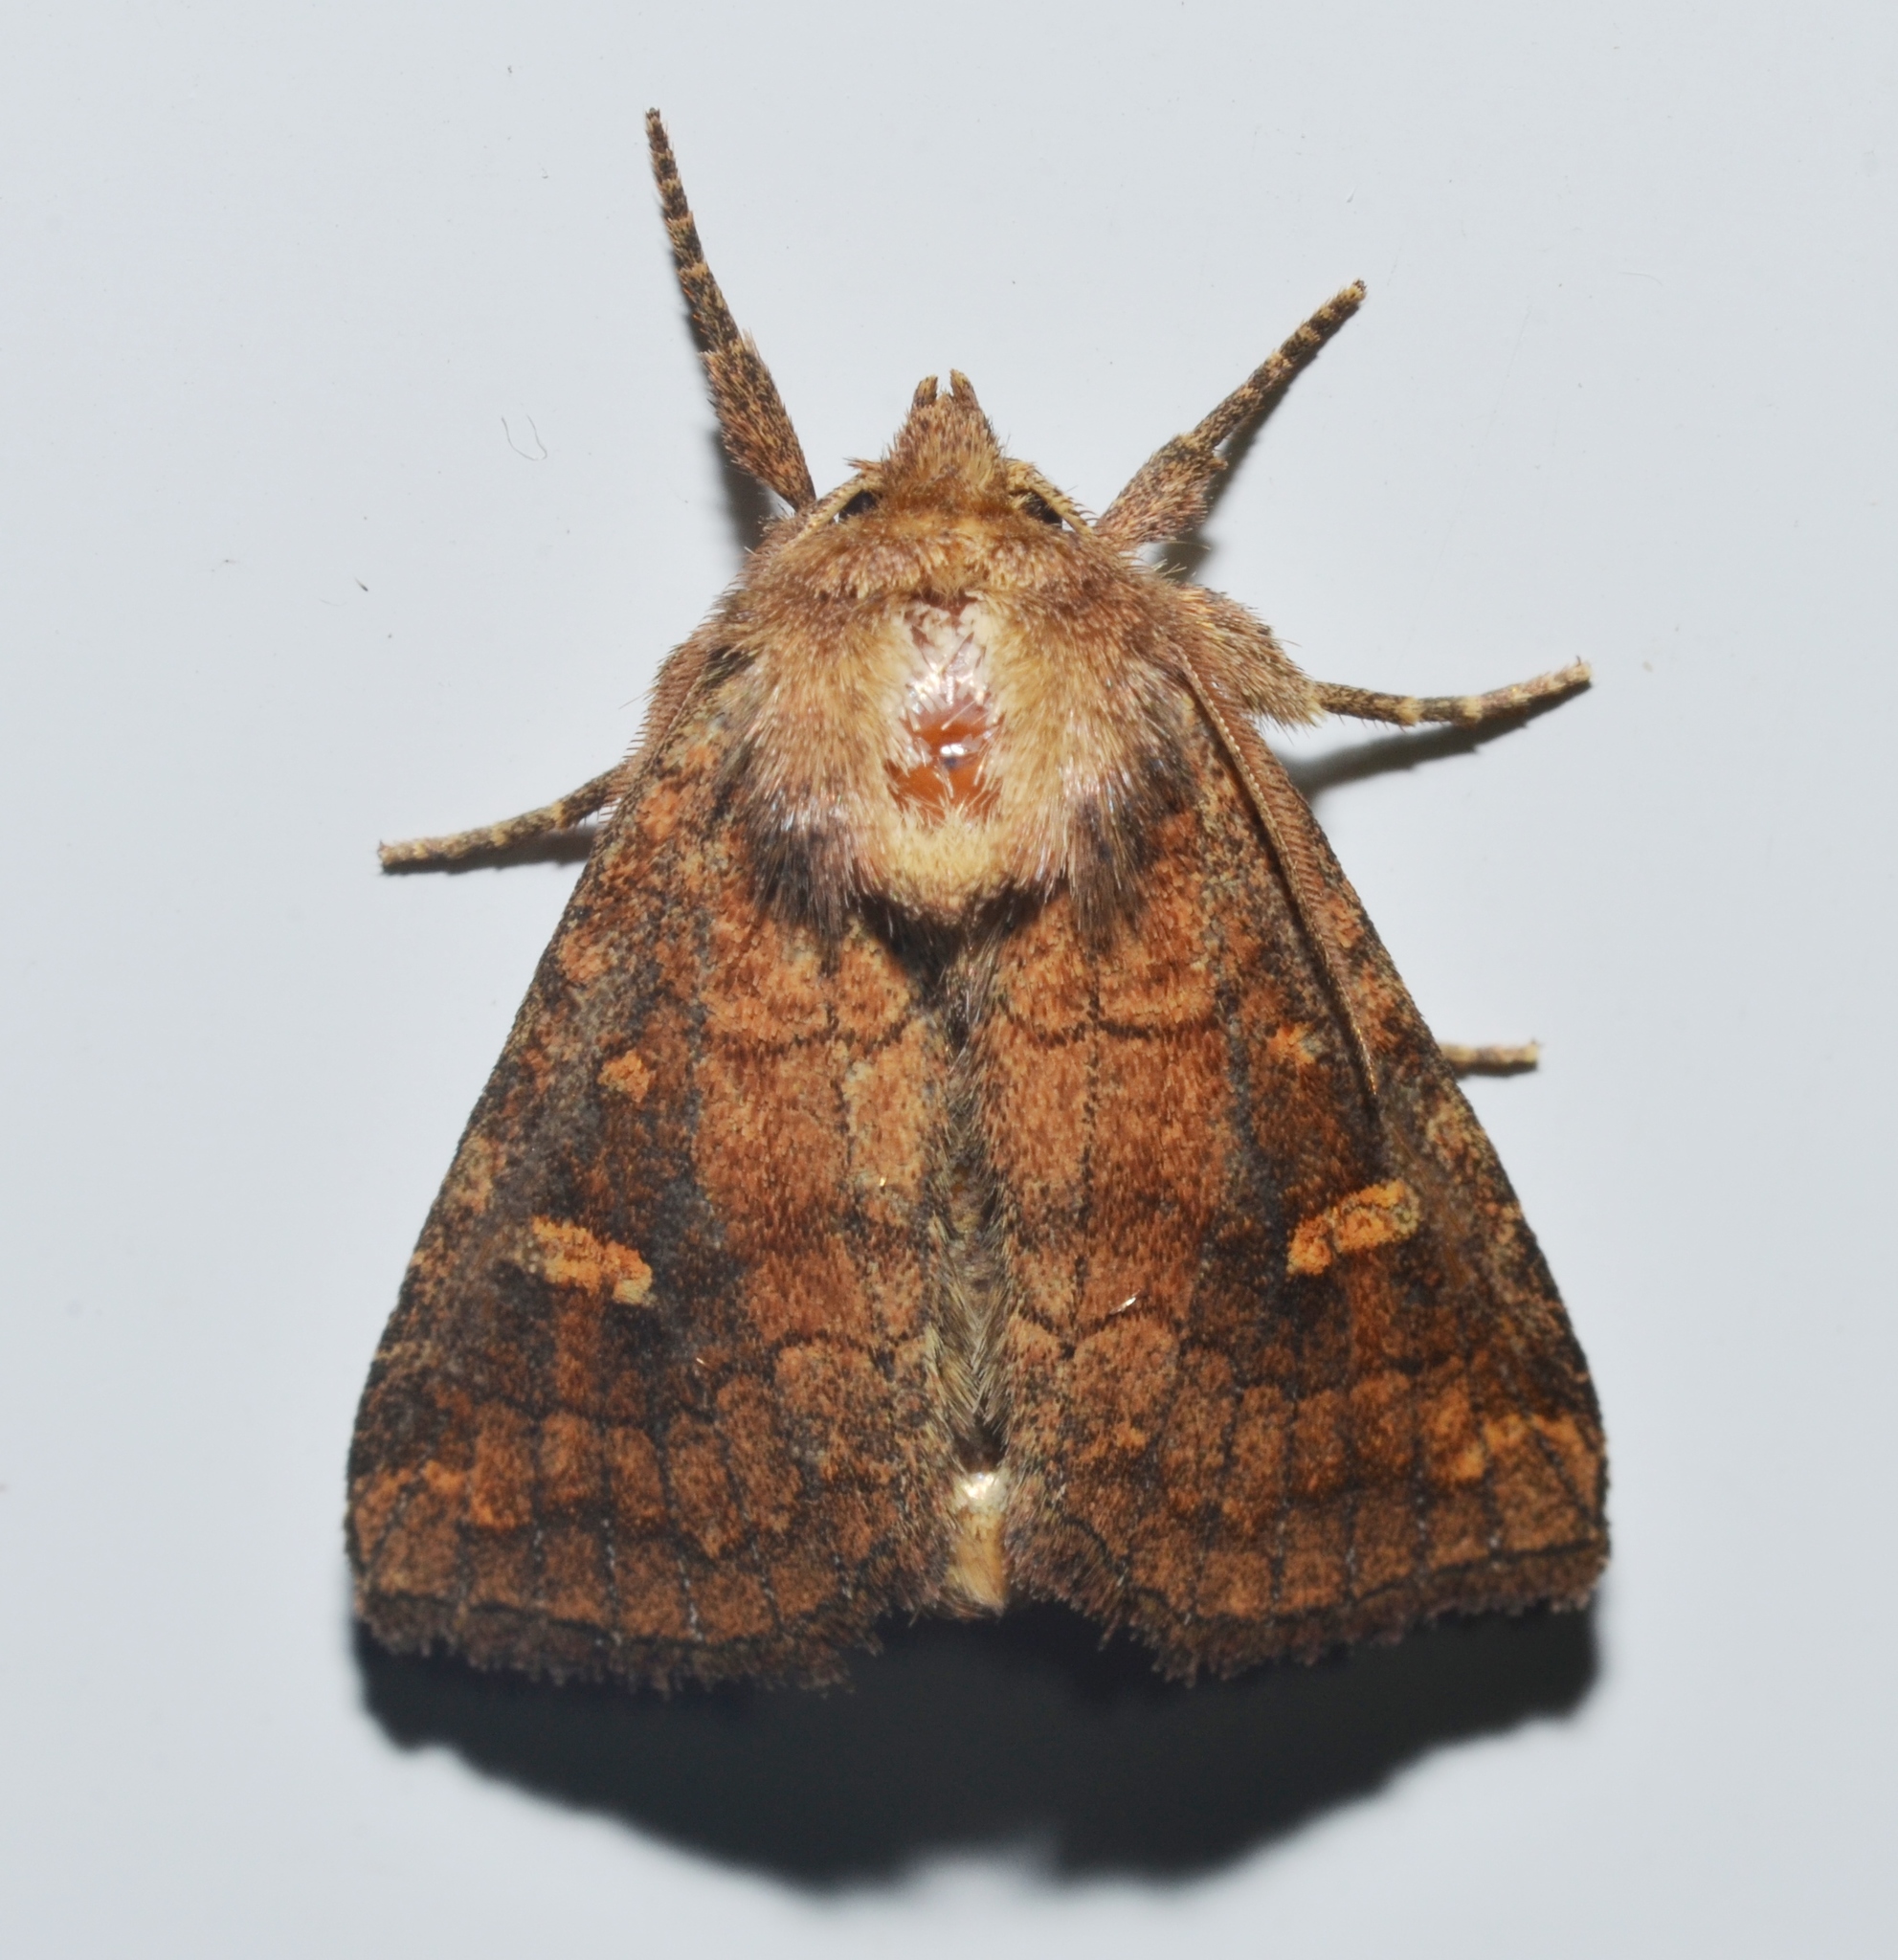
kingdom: Animalia
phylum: Arthropoda
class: Insecta
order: Lepidoptera
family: Noctuidae
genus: Tricholita
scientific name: Tricholita signata
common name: Signate quaker
